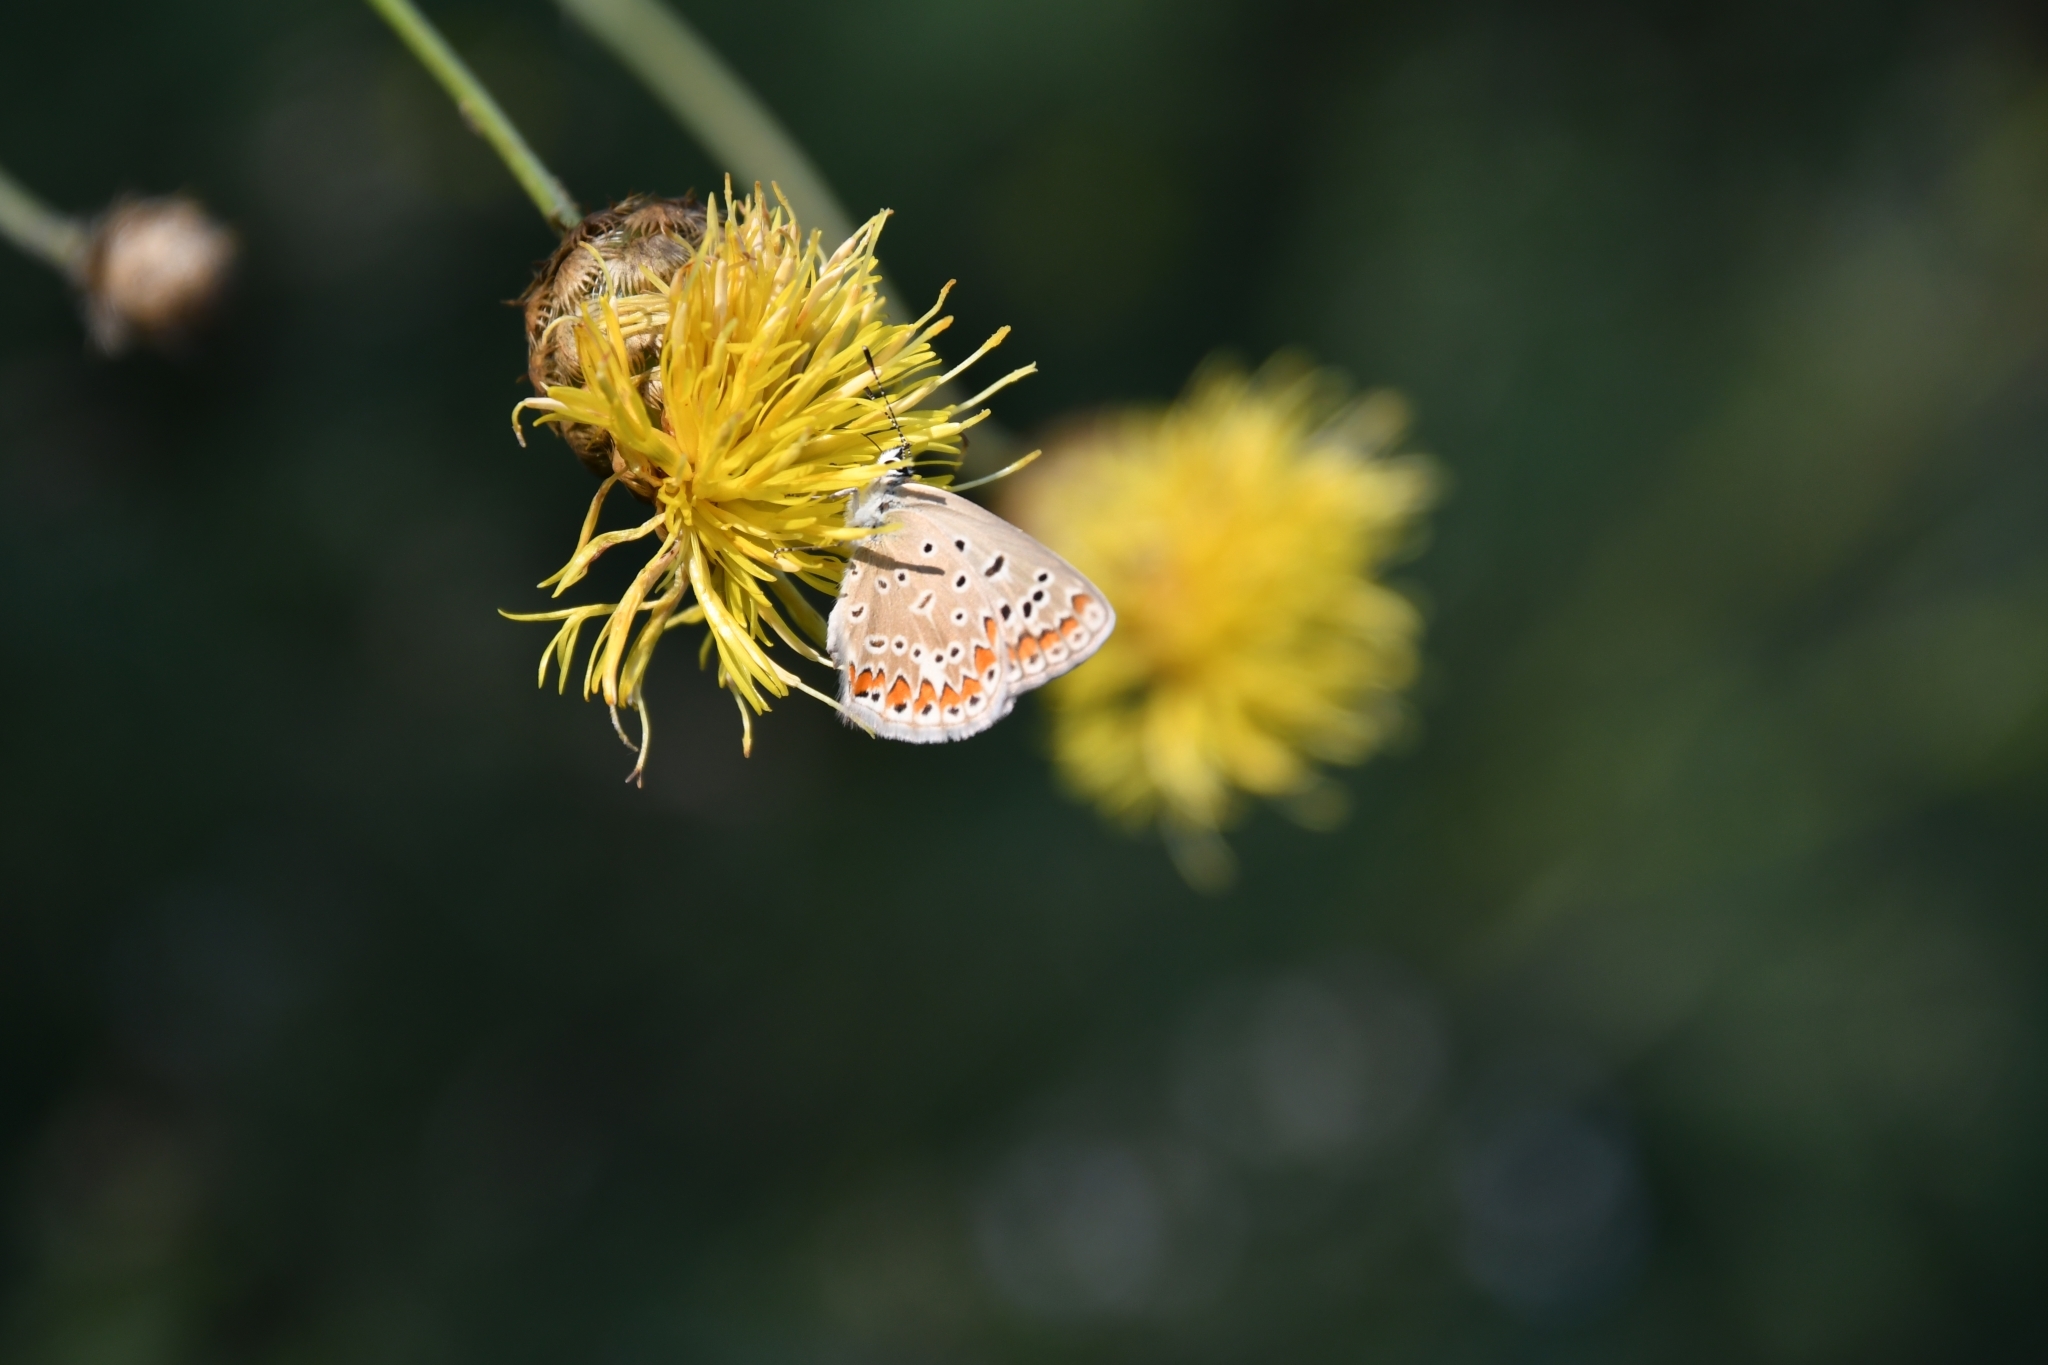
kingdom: Animalia
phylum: Arthropoda
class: Insecta
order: Lepidoptera
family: Lycaenidae
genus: Polyommatus
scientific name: Polyommatus icarus
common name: Common blue
